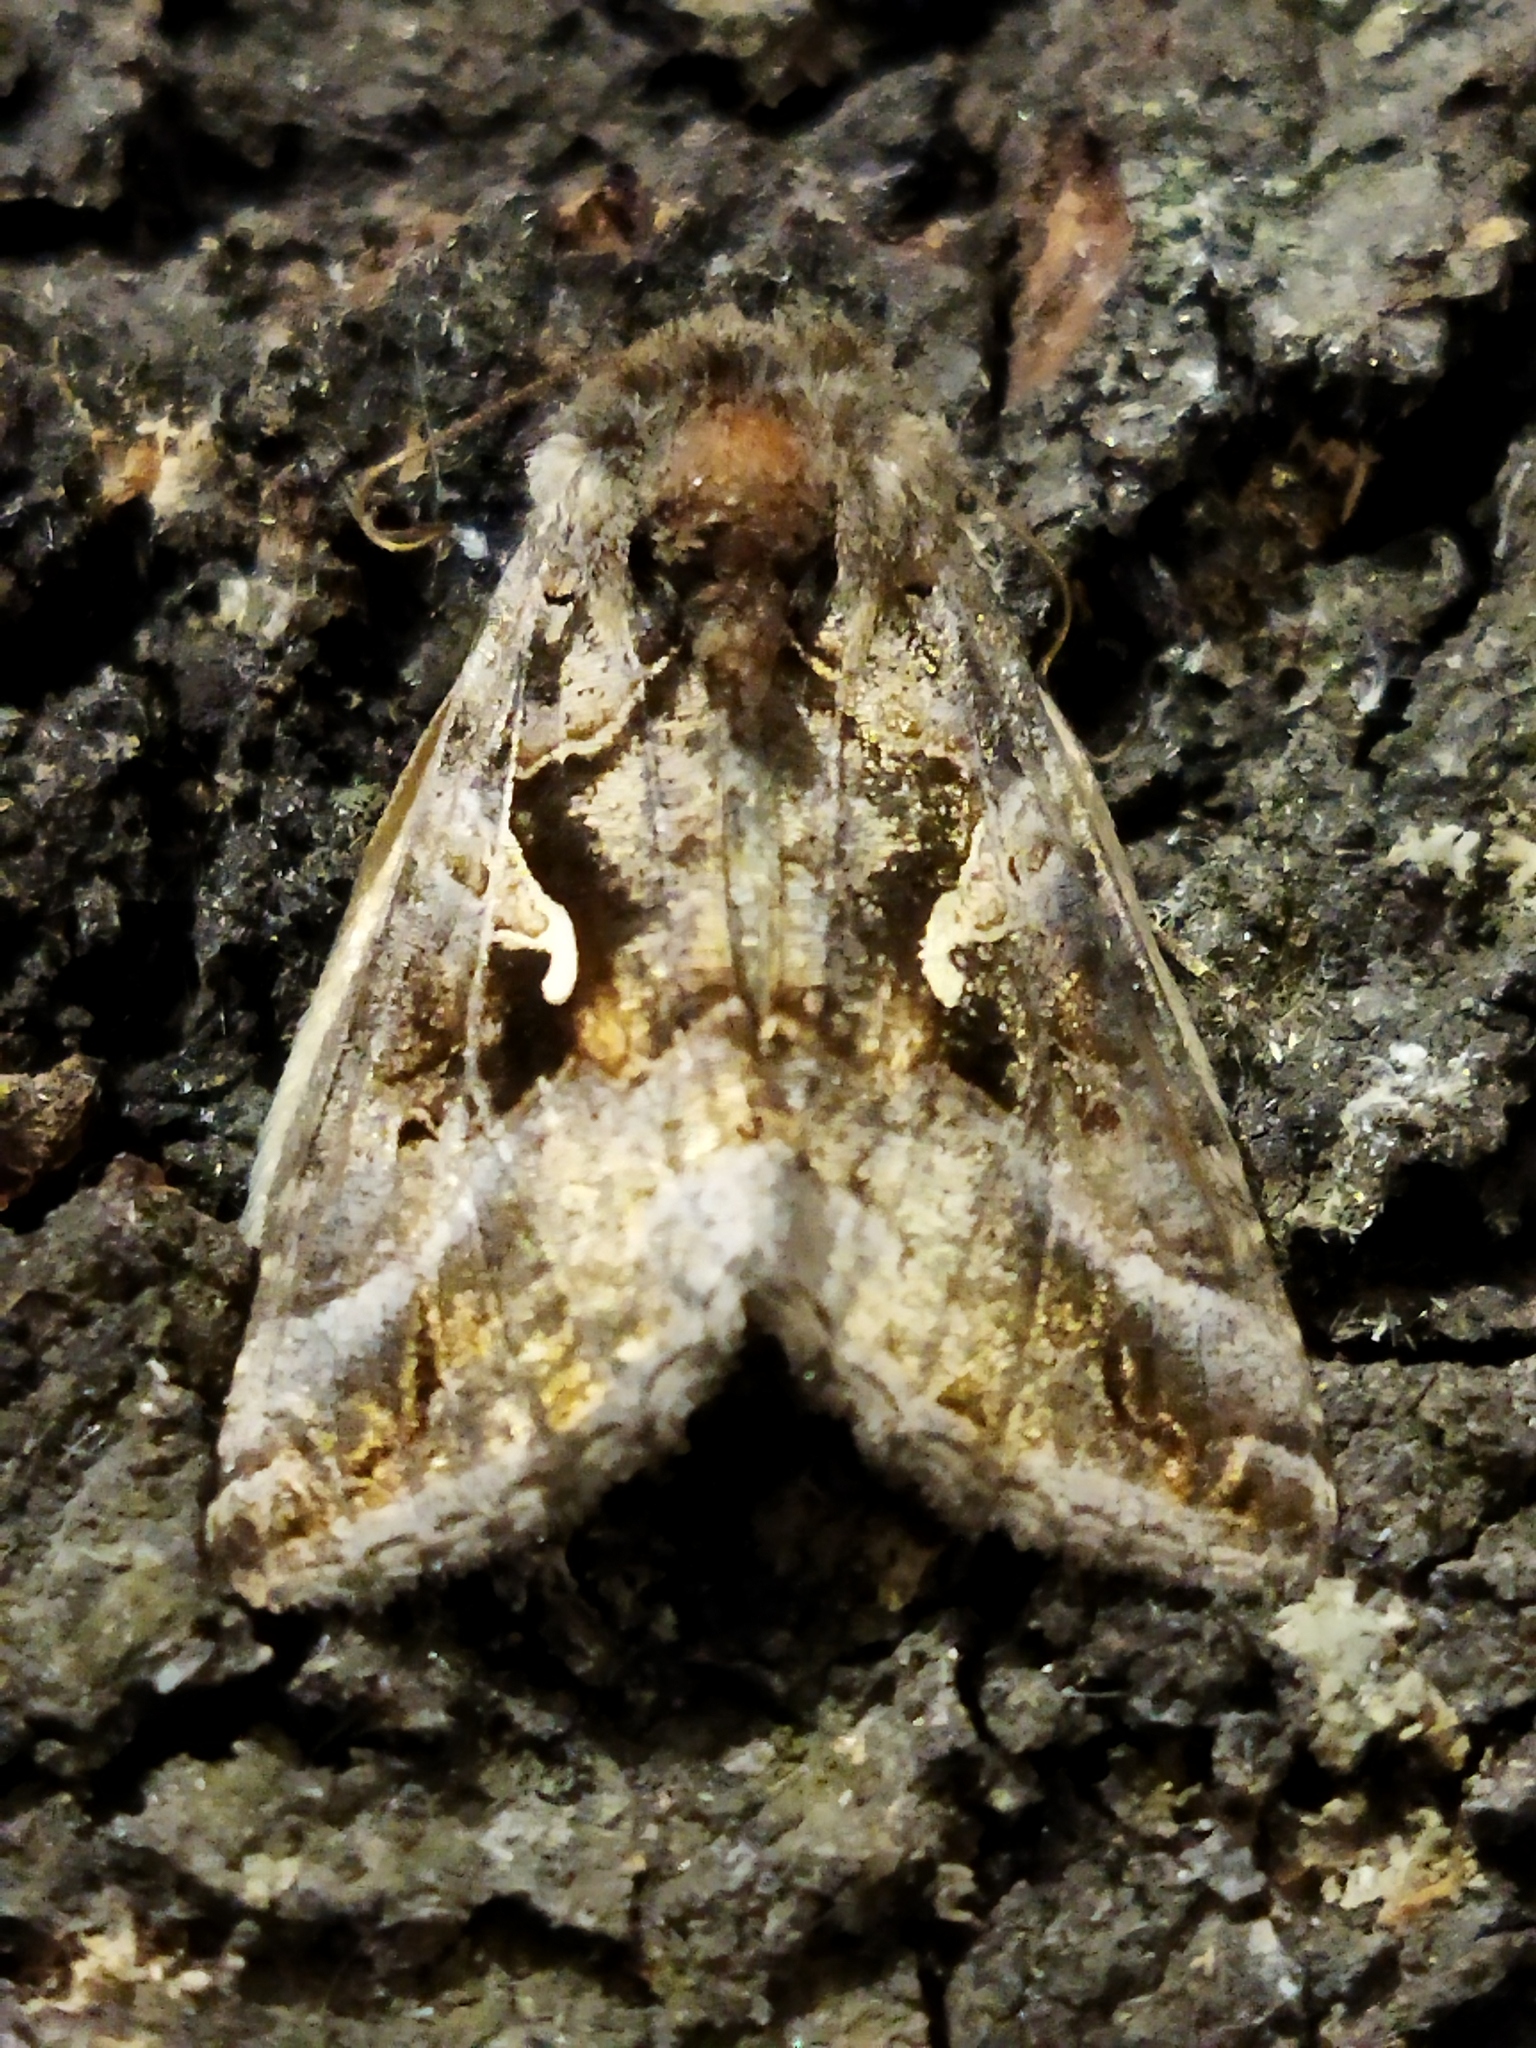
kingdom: Animalia
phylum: Arthropoda
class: Insecta
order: Lepidoptera
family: Noctuidae
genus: Autographa
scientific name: Autographa gamma
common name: Silver y
